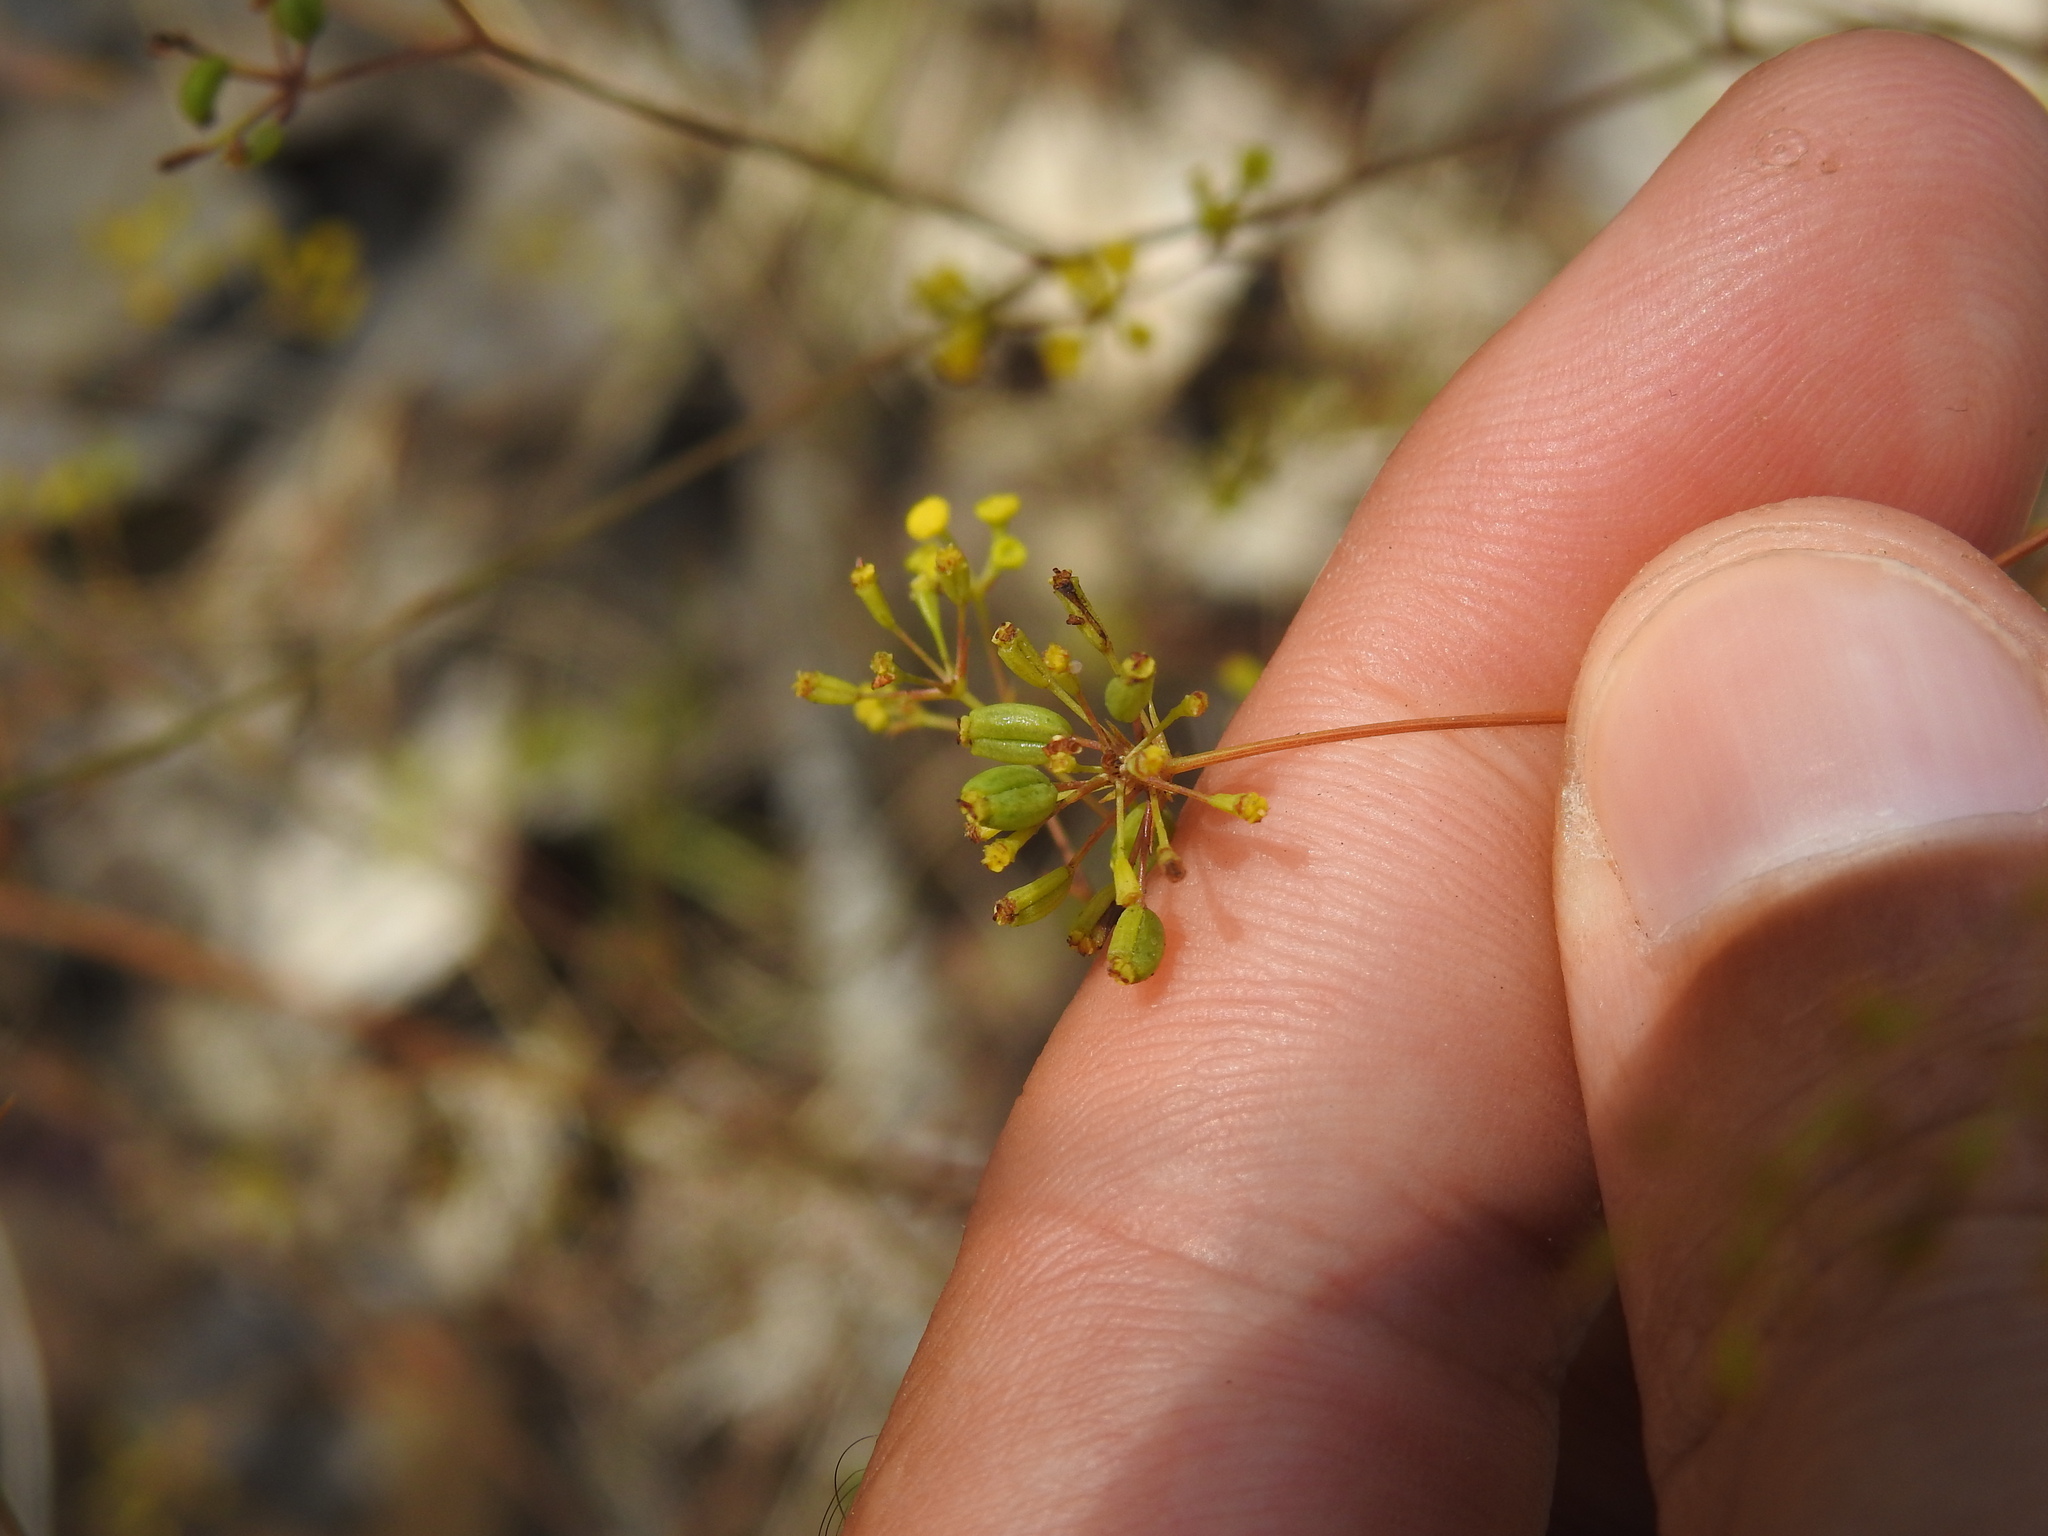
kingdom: Plantae
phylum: Tracheophyta
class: Magnoliopsida
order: Apiales
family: Apiaceae
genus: Bupleurum
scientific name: Bupleurum rigidum
